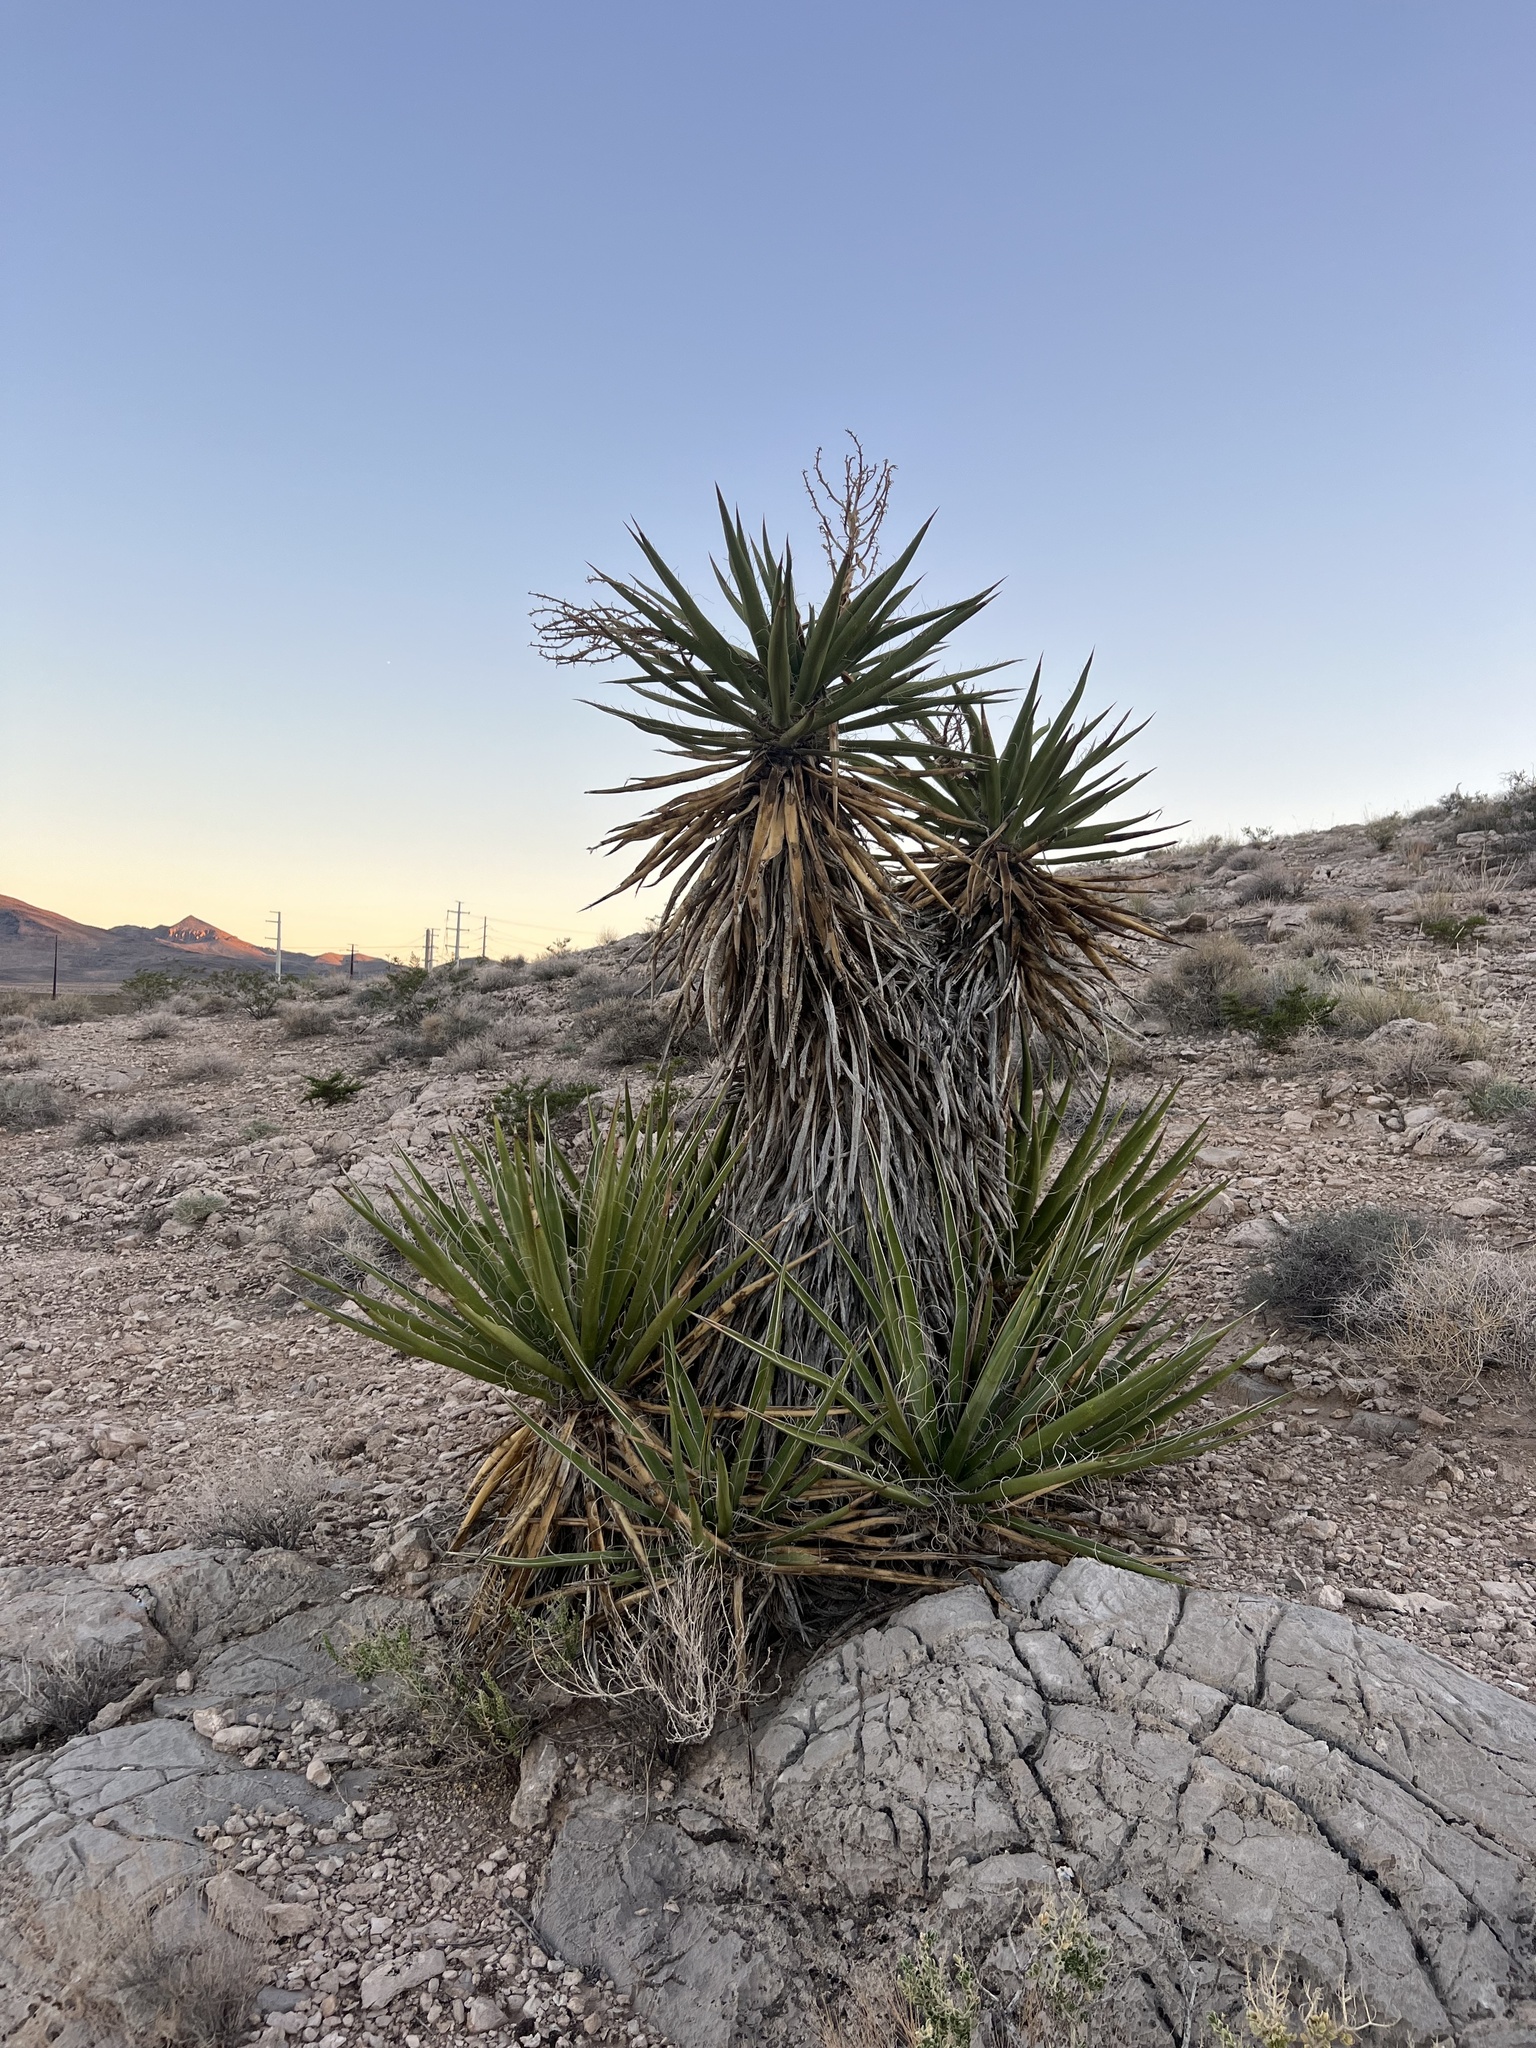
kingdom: Plantae
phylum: Tracheophyta
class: Liliopsida
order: Asparagales
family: Asparagaceae
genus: Yucca
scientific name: Yucca schidigera
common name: Mojave yucca
